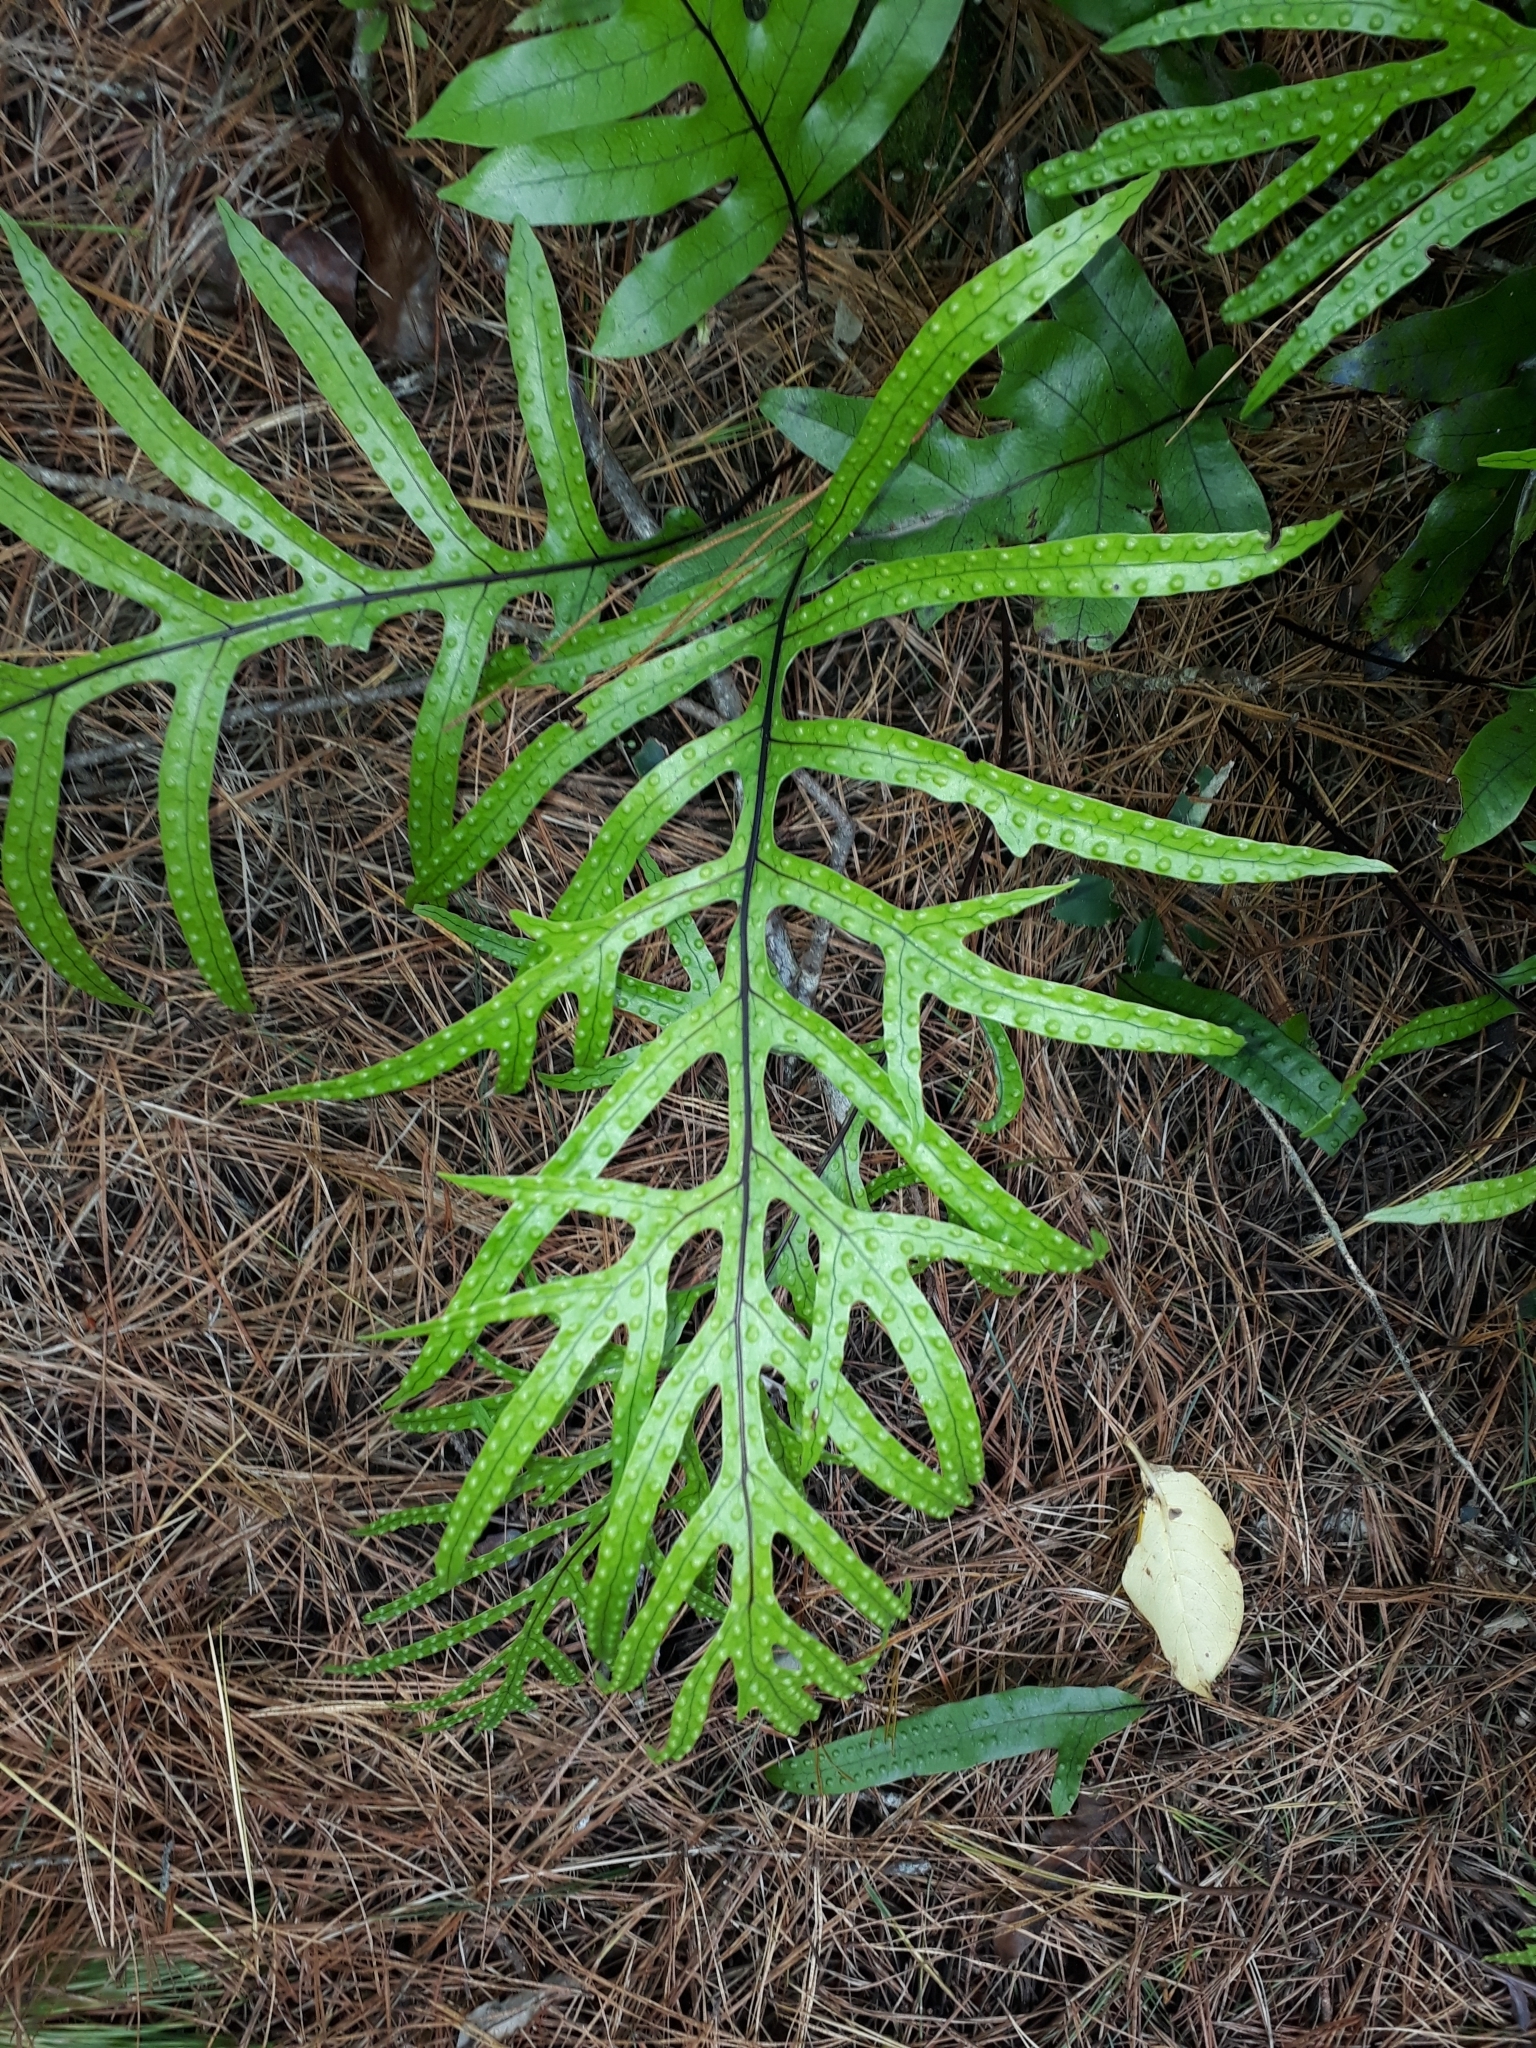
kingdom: Plantae
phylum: Tracheophyta
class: Polypodiopsida
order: Polypodiales
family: Polypodiaceae
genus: Lecanopteris
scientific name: Lecanopteris pustulata
